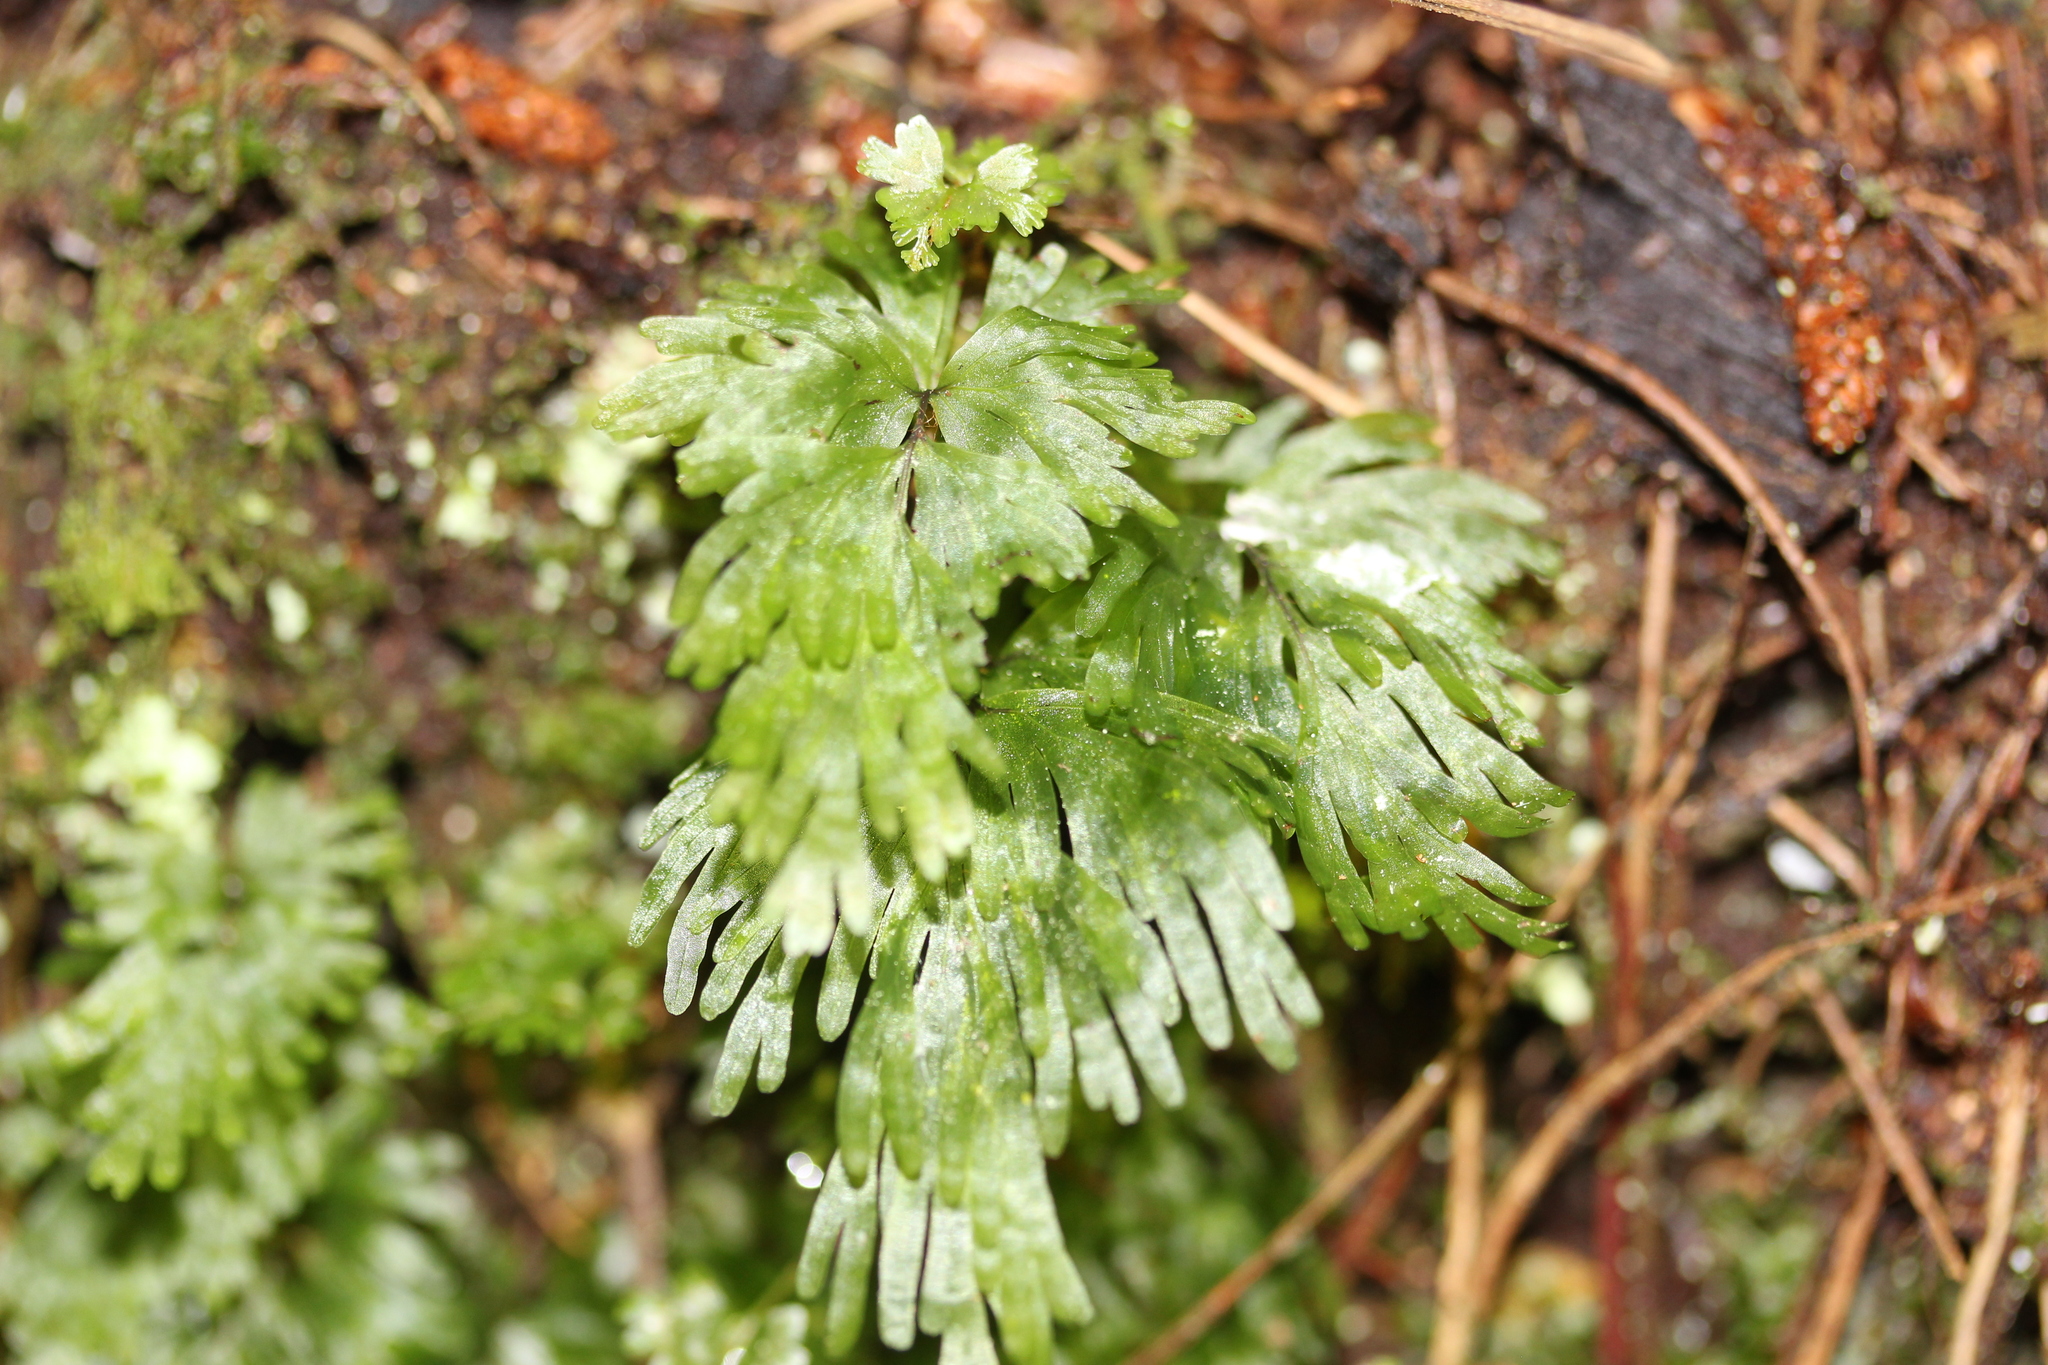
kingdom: Plantae
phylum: Tracheophyta
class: Polypodiopsida
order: Hymenophyllales
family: Hymenophyllaceae
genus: Hymenophyllum
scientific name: Hymenophyllum flabellatum
